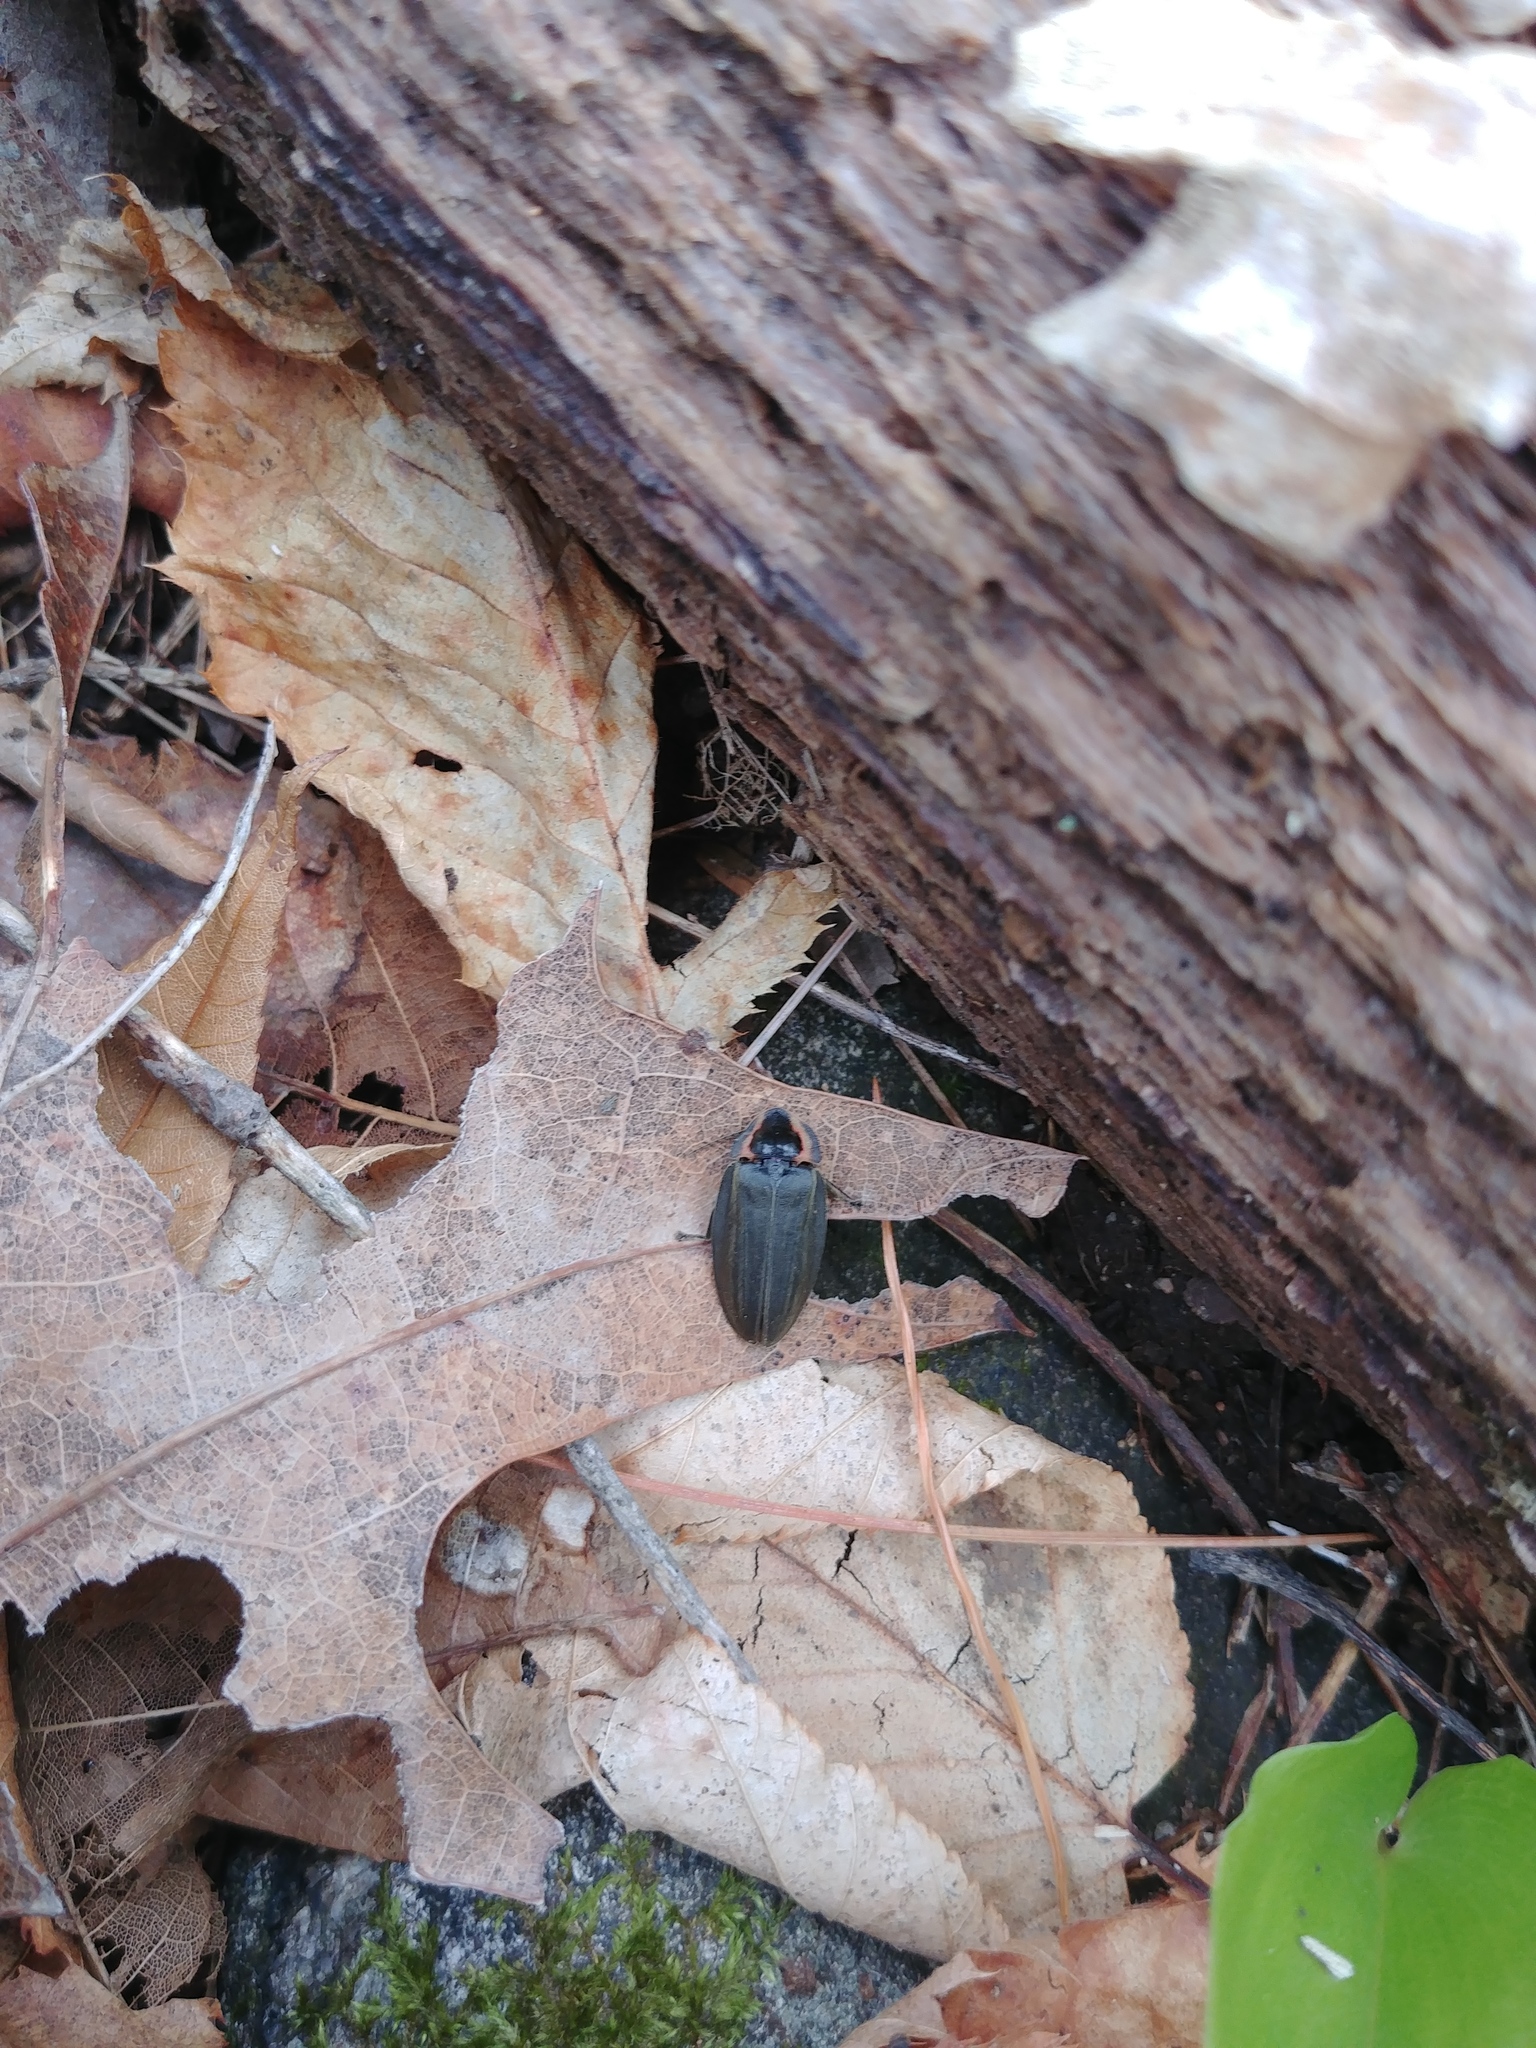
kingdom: Animalia
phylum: Arthropoda
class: Insecta
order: Coleoptera
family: Lampyridae
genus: Photinus
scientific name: Photinus corrusca
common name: Winter firefly
